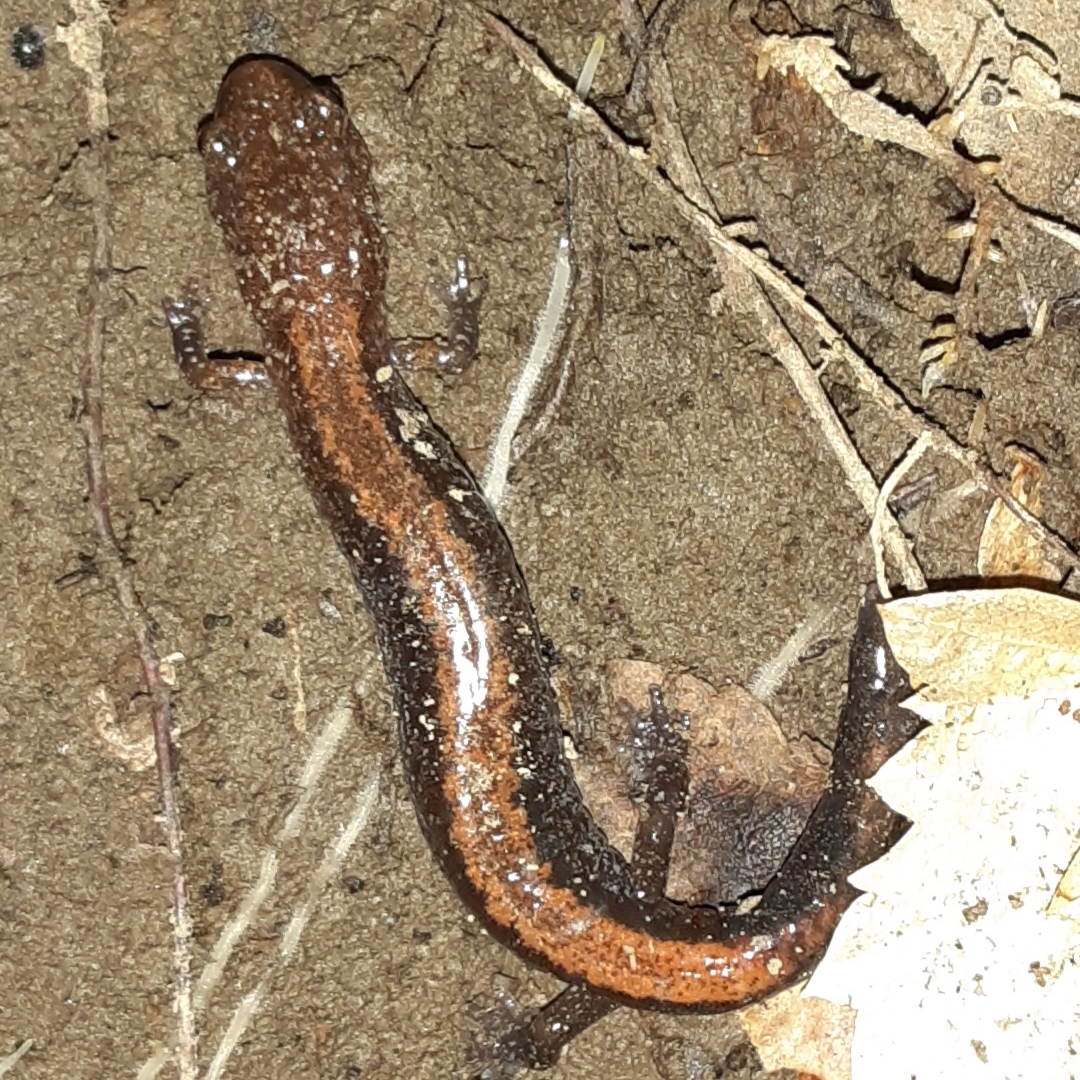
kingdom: Animalia
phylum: Chordata
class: Amphibia
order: Caudata
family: Plethodontidae
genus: Plethodon
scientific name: Plethodon cinereus
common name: Redback salamander
